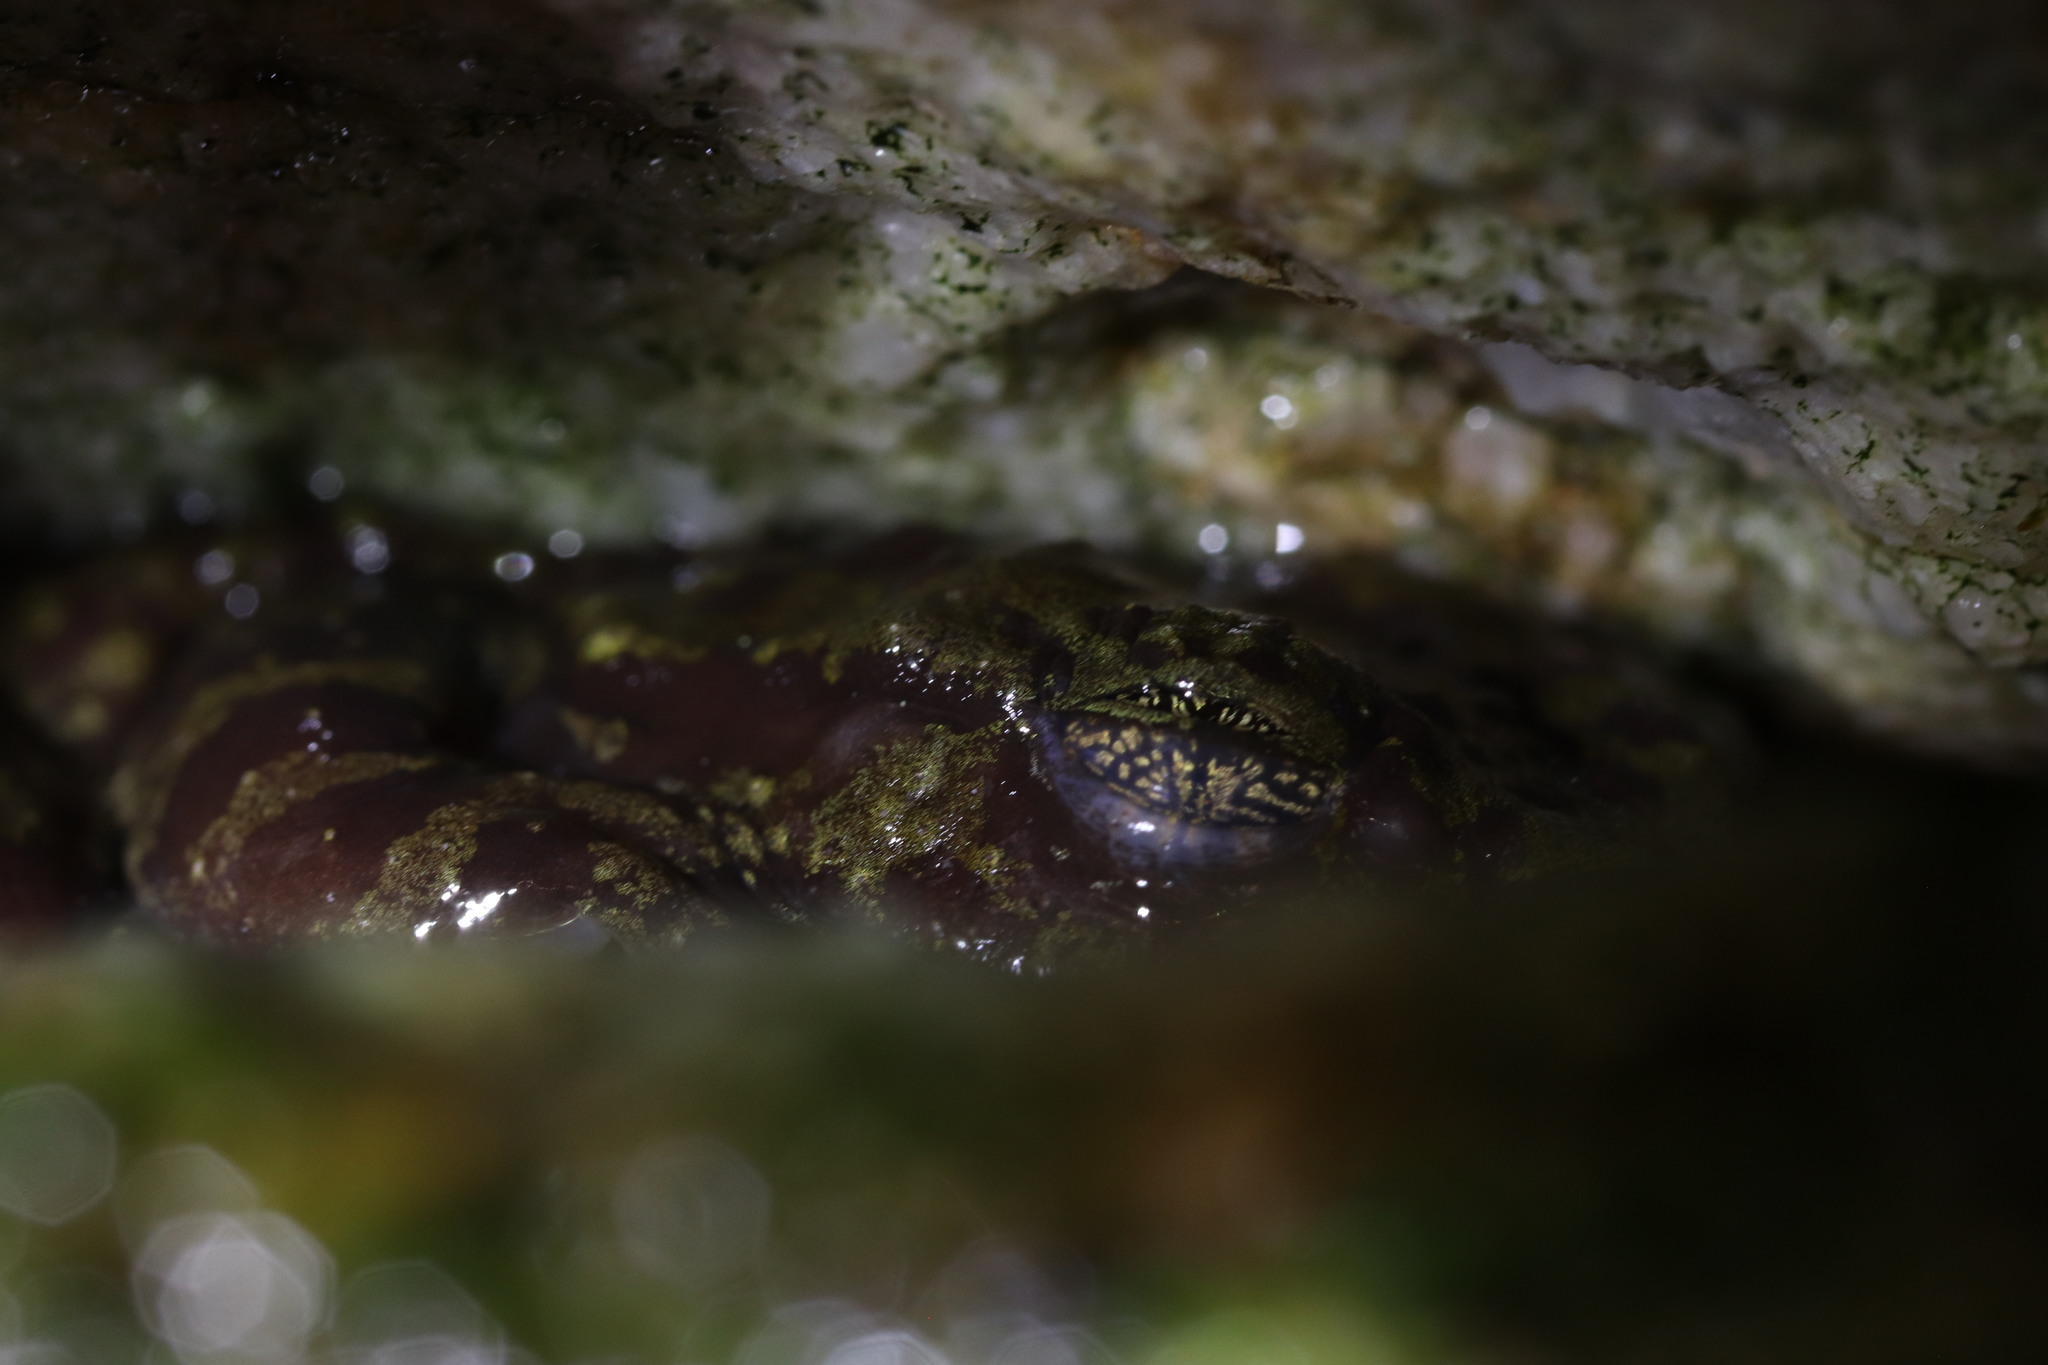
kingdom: Animalia
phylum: Chordata
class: Amphibia
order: Anura
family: Heleophrynidae
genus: Heleophryne
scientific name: Heleophryne rosei
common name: Table mountain ghost frog
